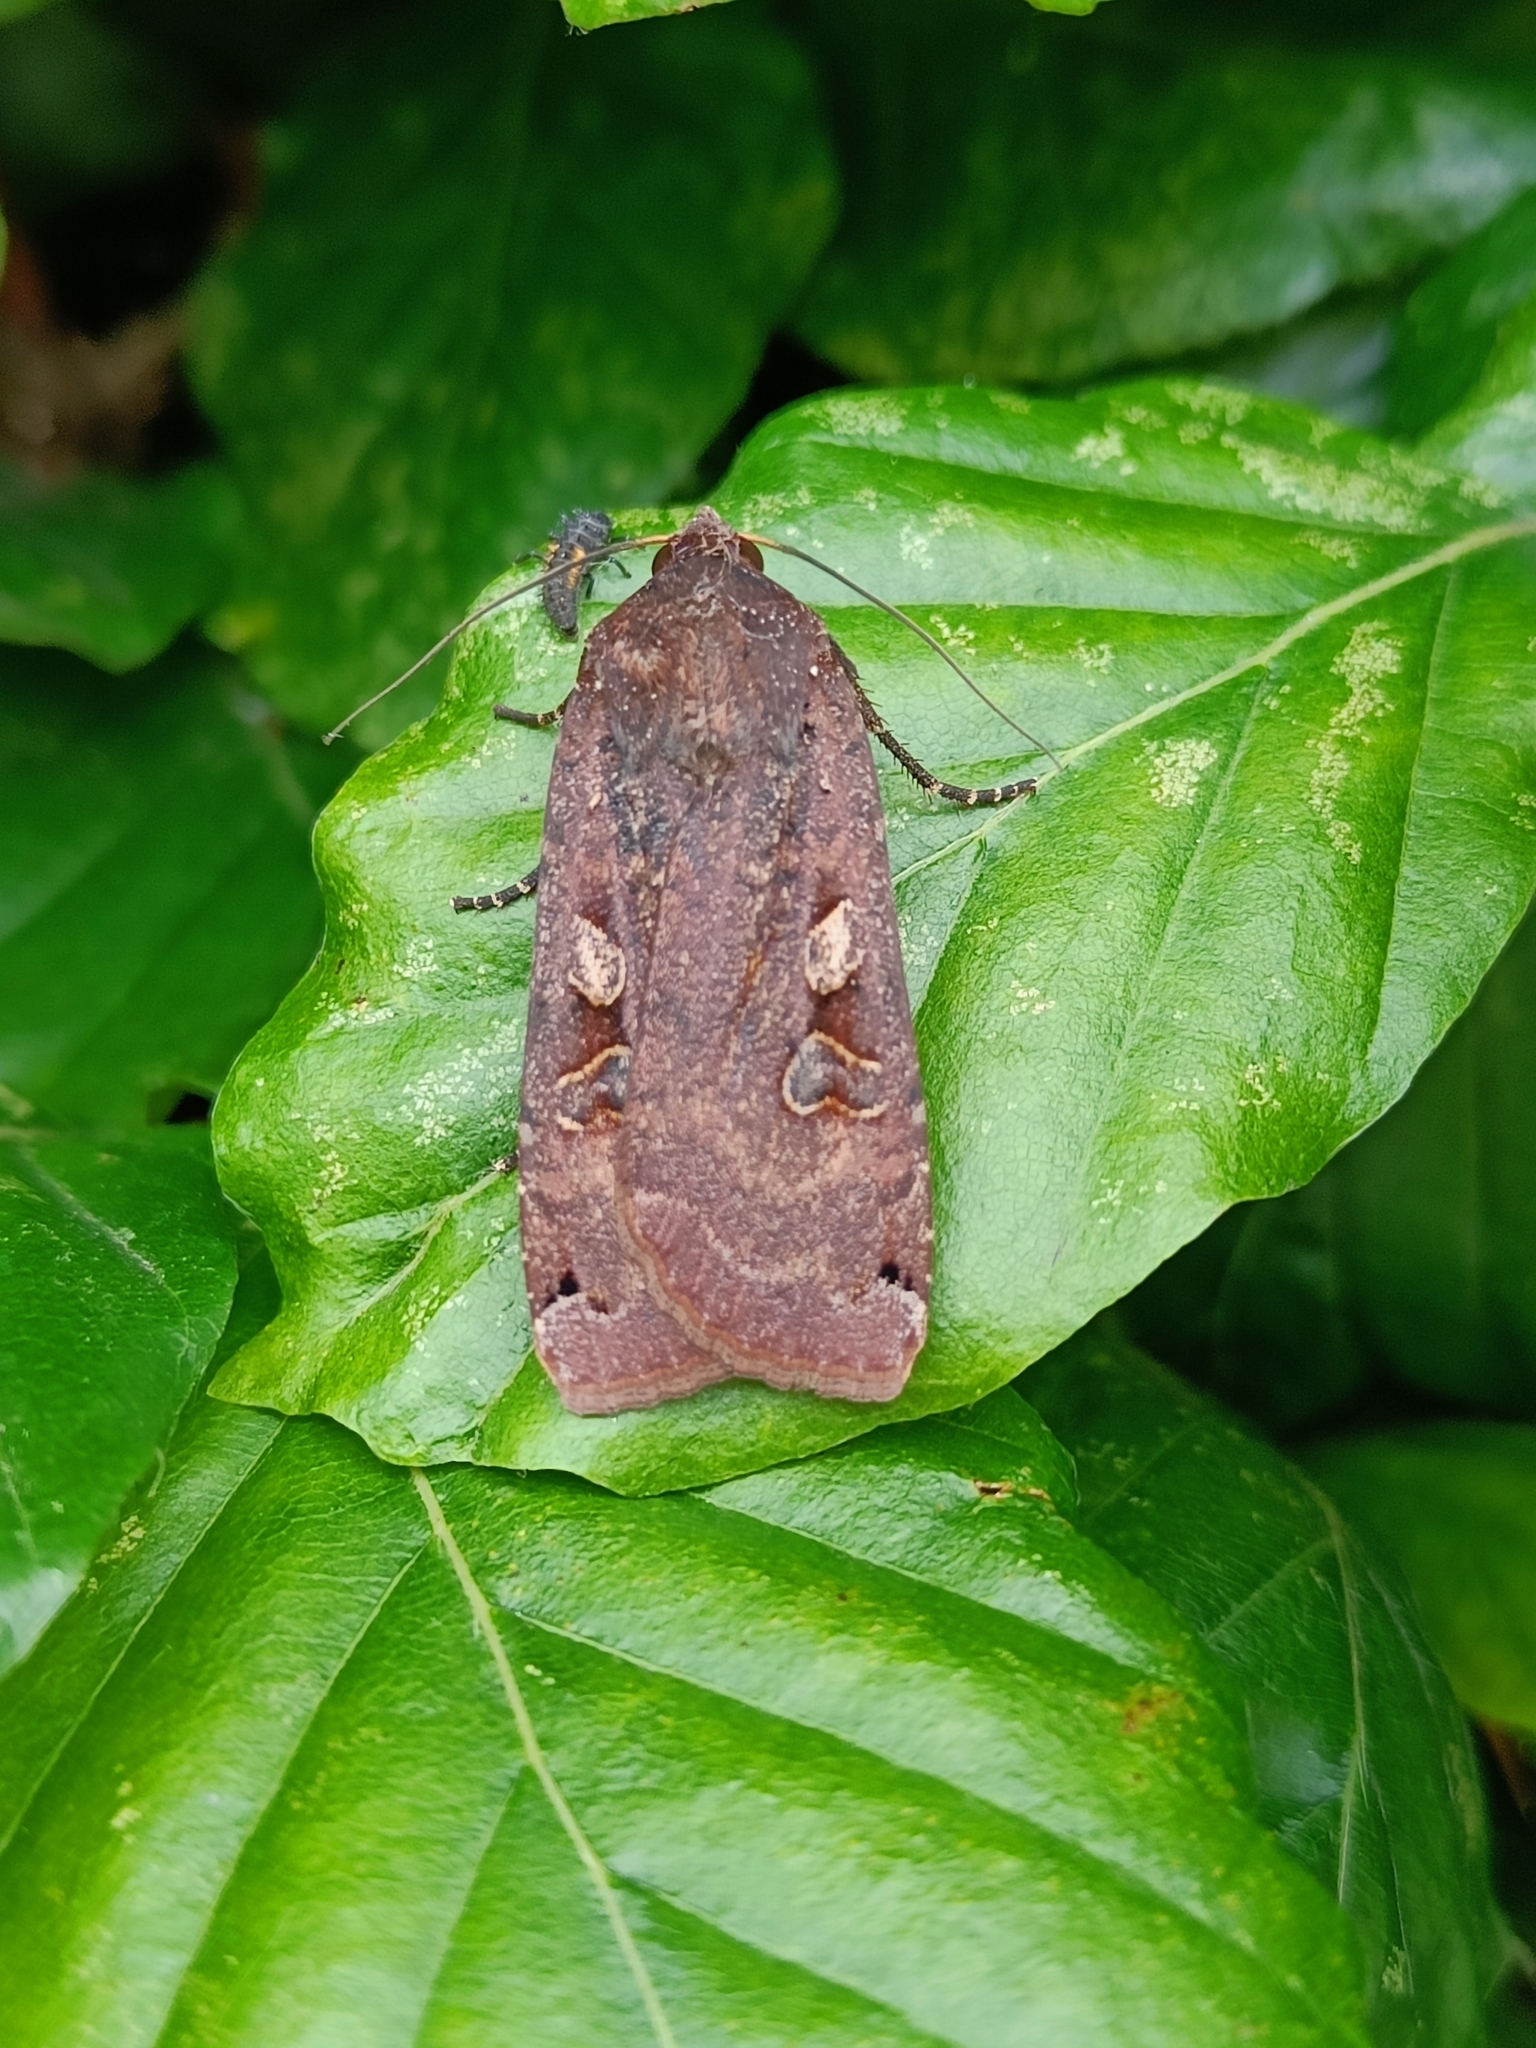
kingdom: Animalia
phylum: Arthropoda
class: Insecta
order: Lepidoptera
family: Noctuidae
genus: Noctua
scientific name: Noctua pronuba
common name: Large yellow underwing
